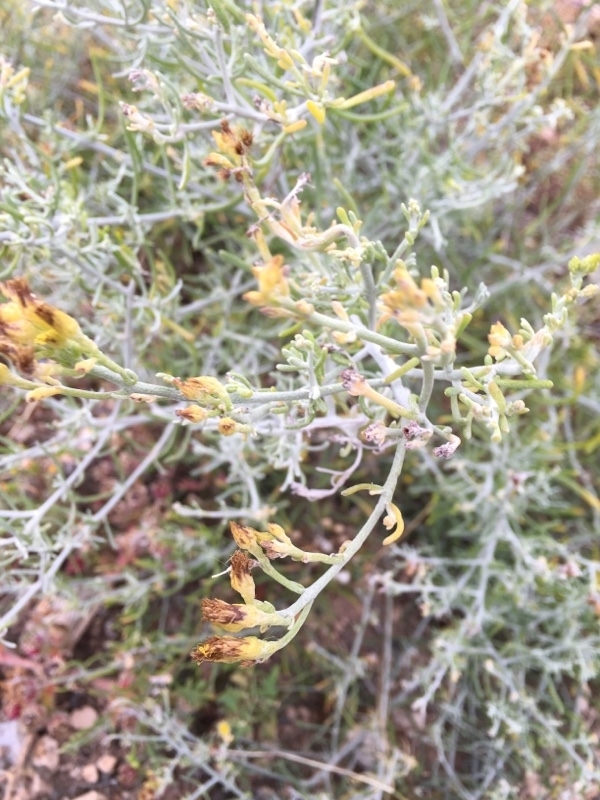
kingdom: Plantae
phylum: Tracheophyta
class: Magnoliopsida
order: Asterales
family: Asteraceae
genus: Schizogyne
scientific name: Schizogyne sericea
